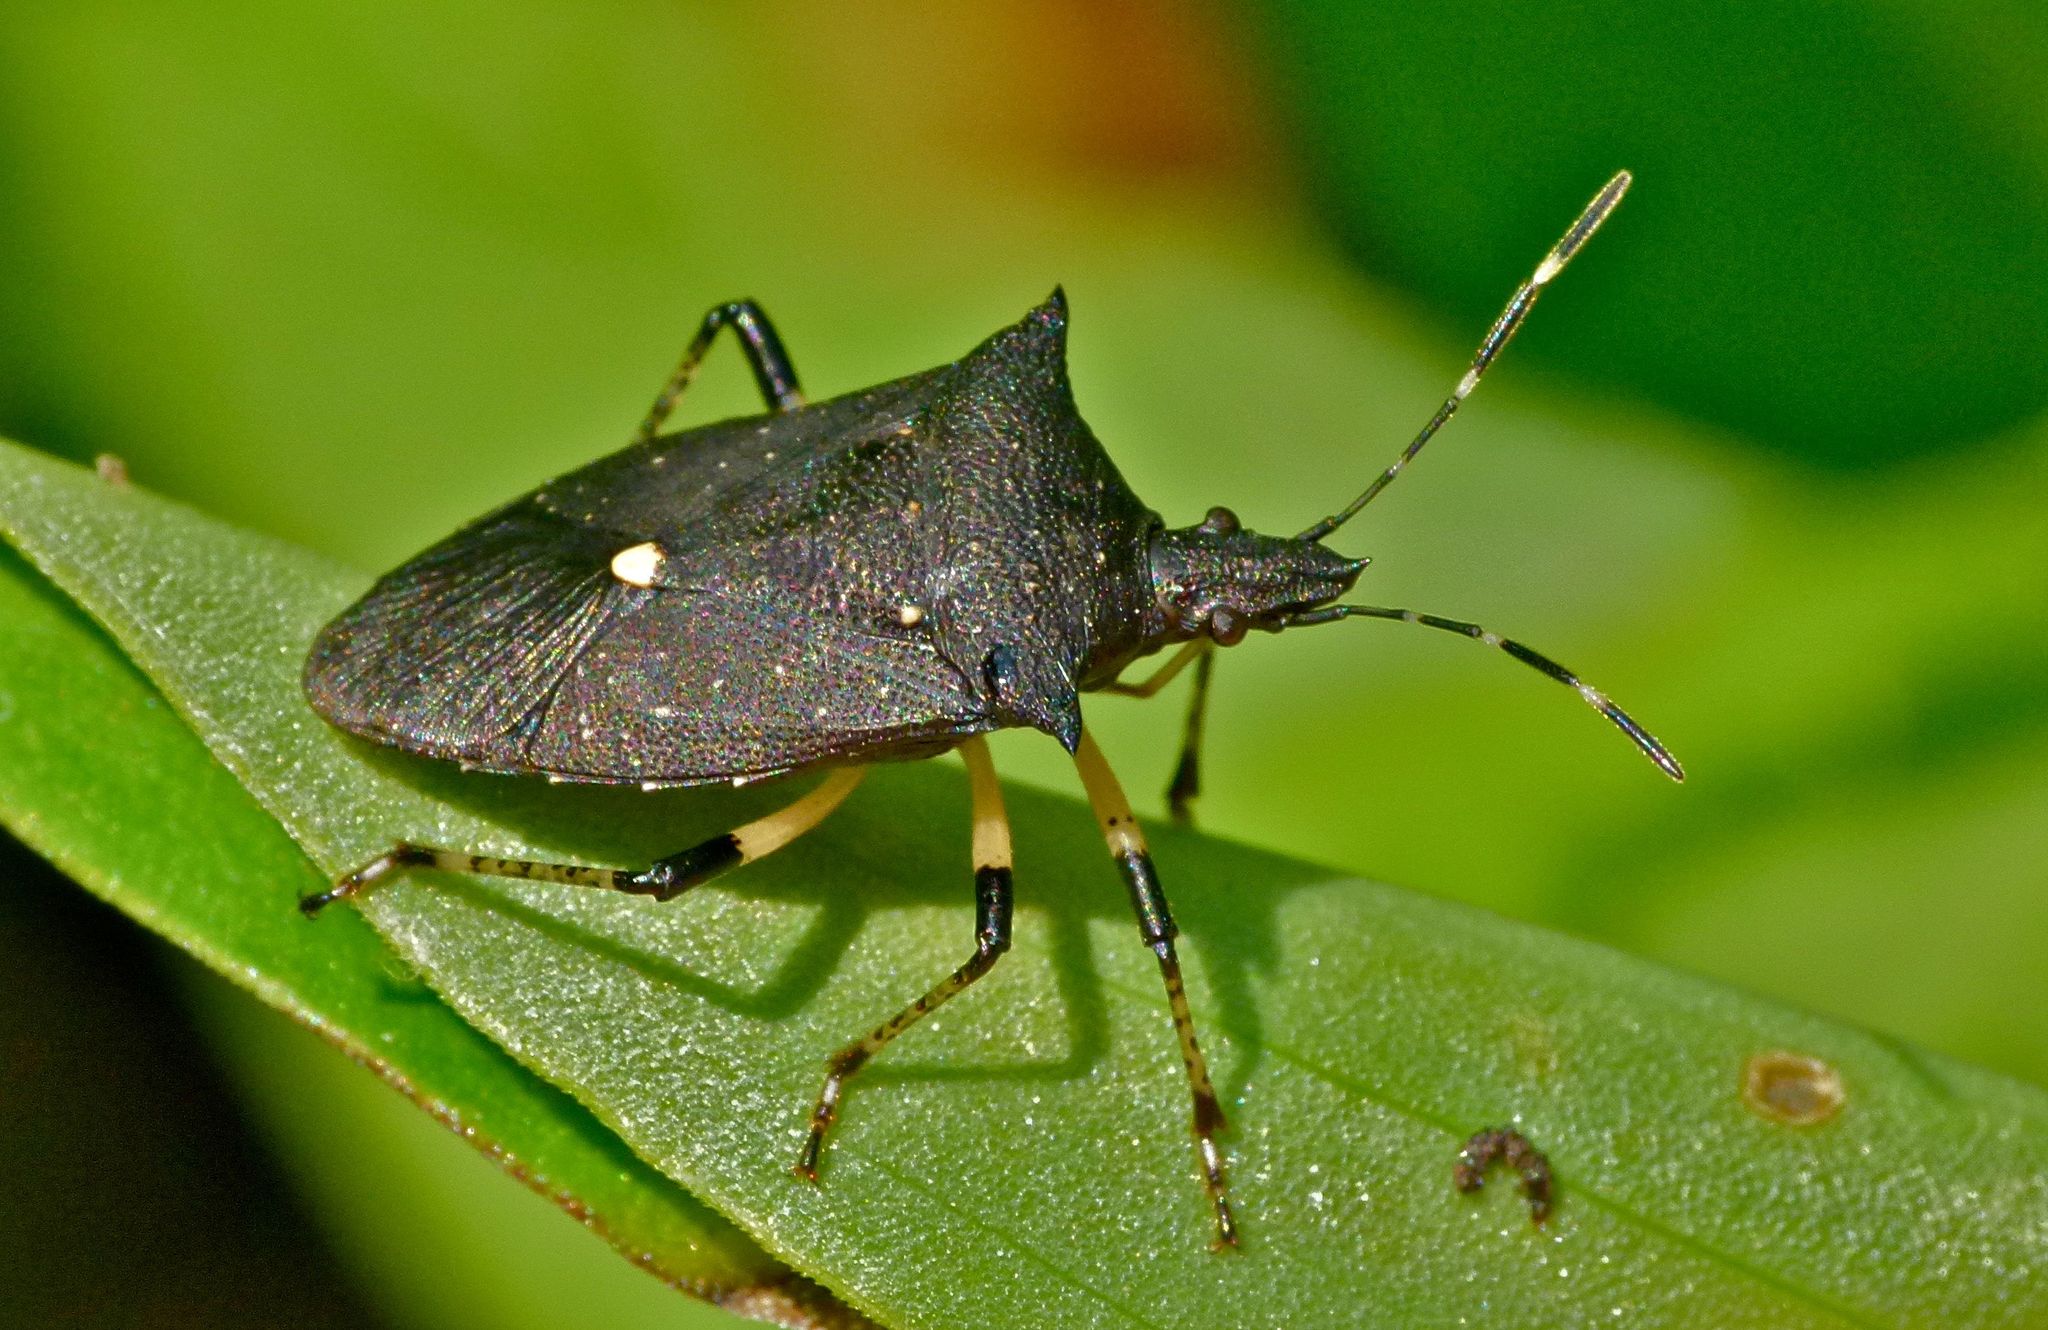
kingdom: Animalia
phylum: Arthropoda
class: Insecta
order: Hemiptera
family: Pentatomidae
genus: Proxys
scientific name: Proxys punctulatus
